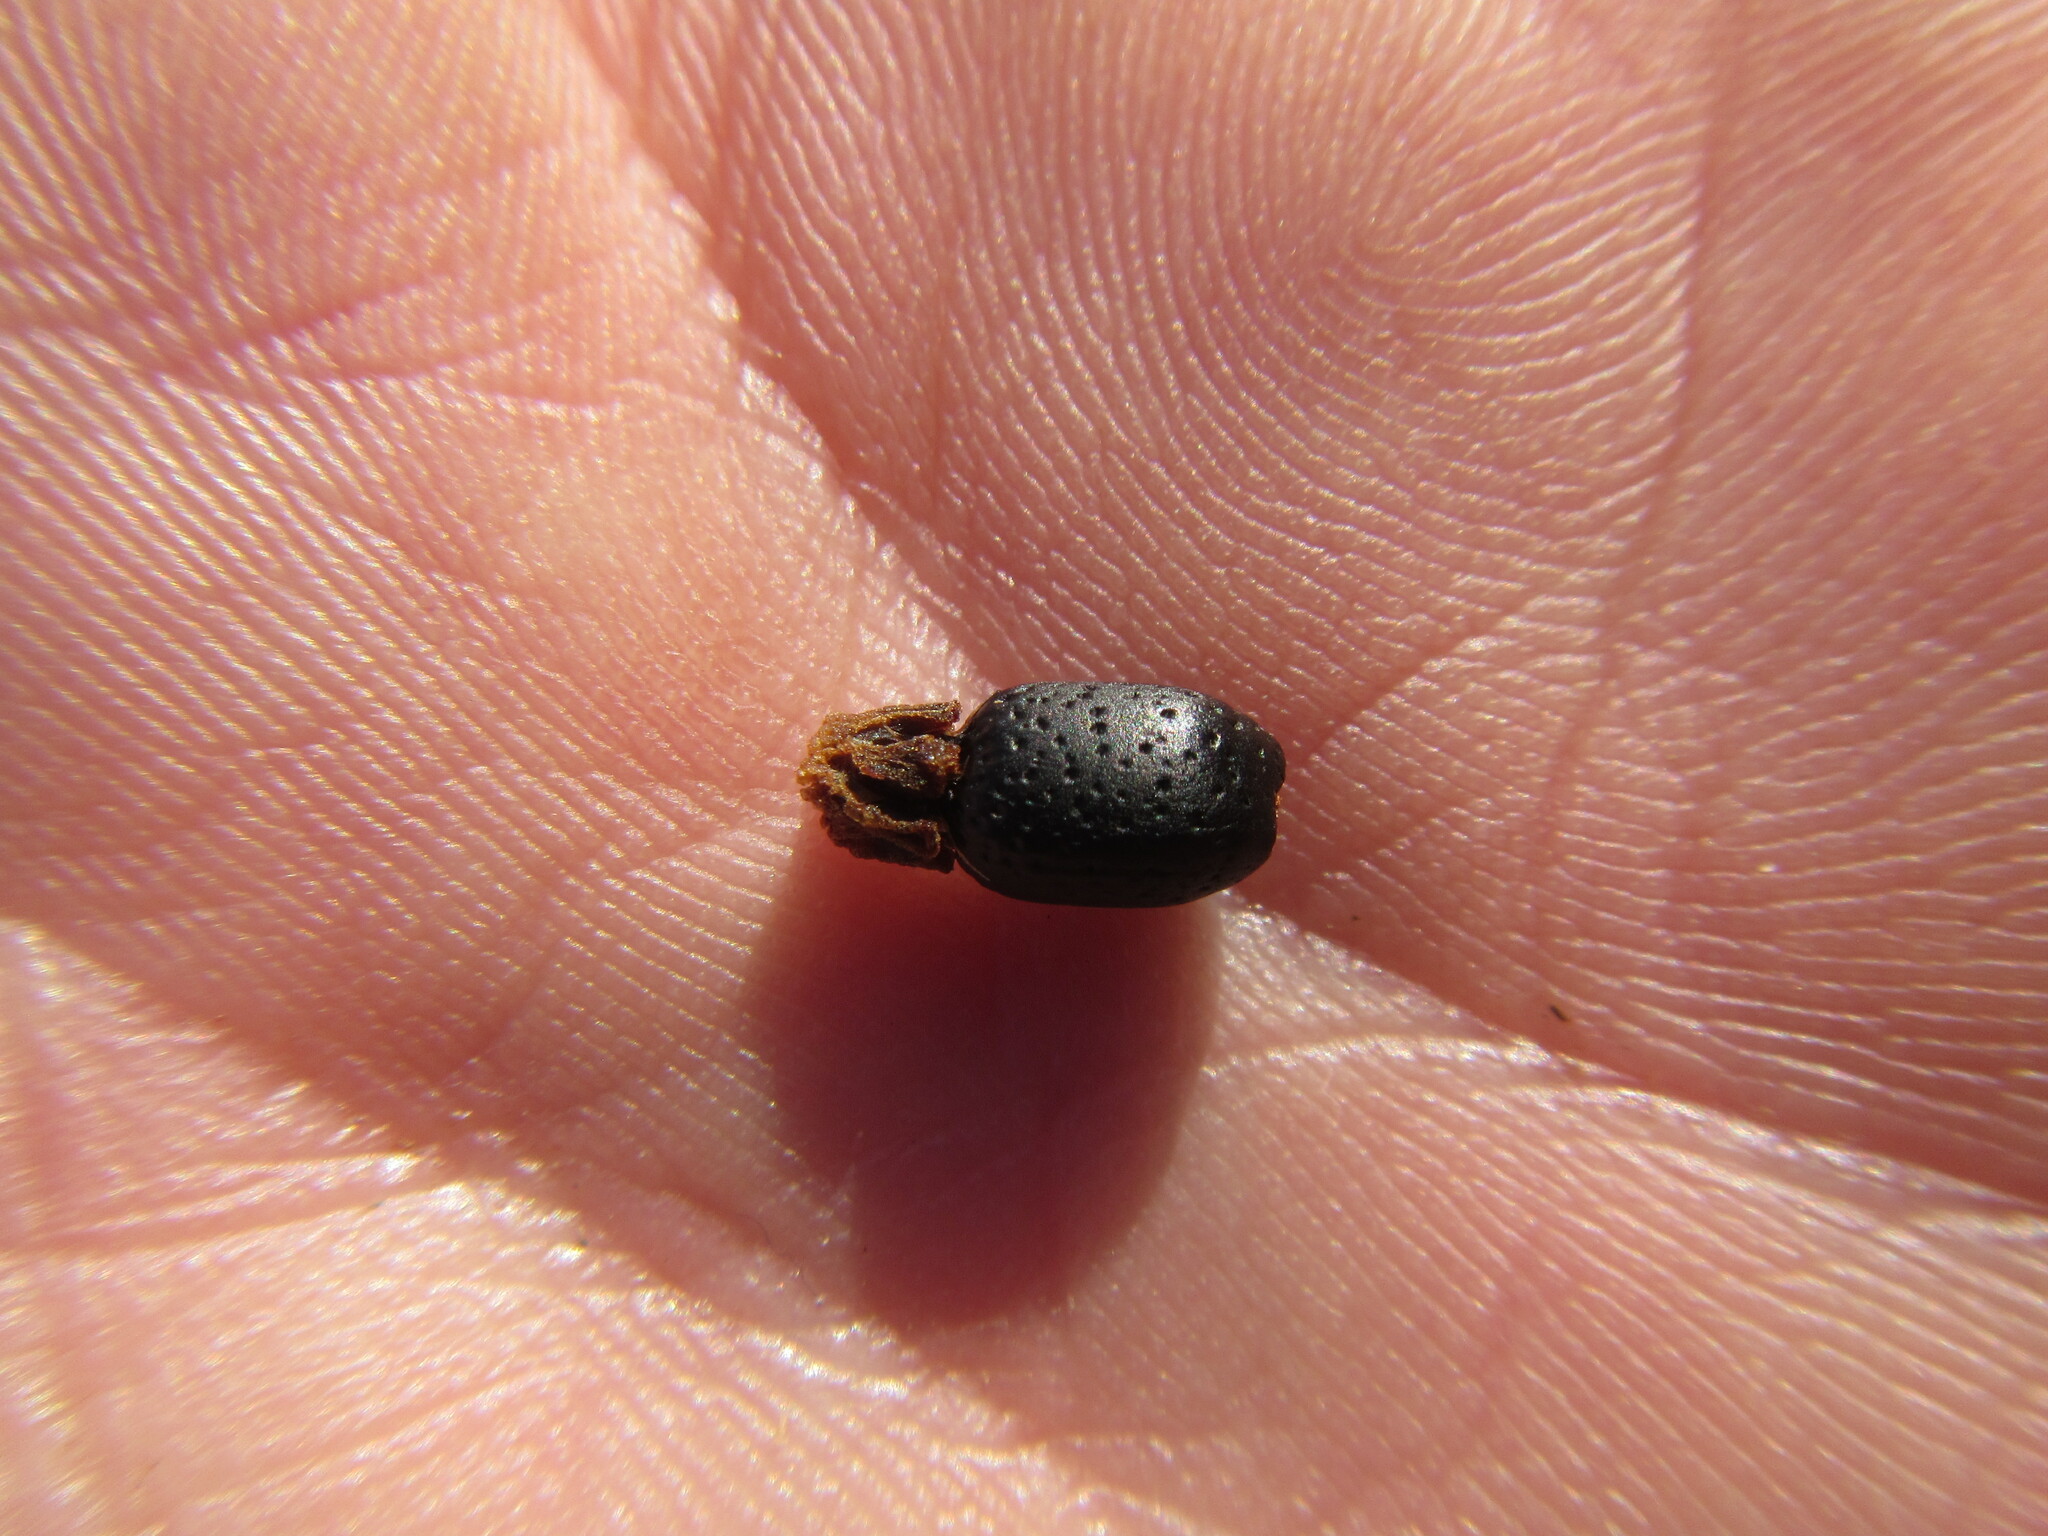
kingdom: Plantae
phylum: Tracheophyta
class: Liliopsida
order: Poales
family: Restionaceae
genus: Willdenowia
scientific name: Willdenowia glomerata
